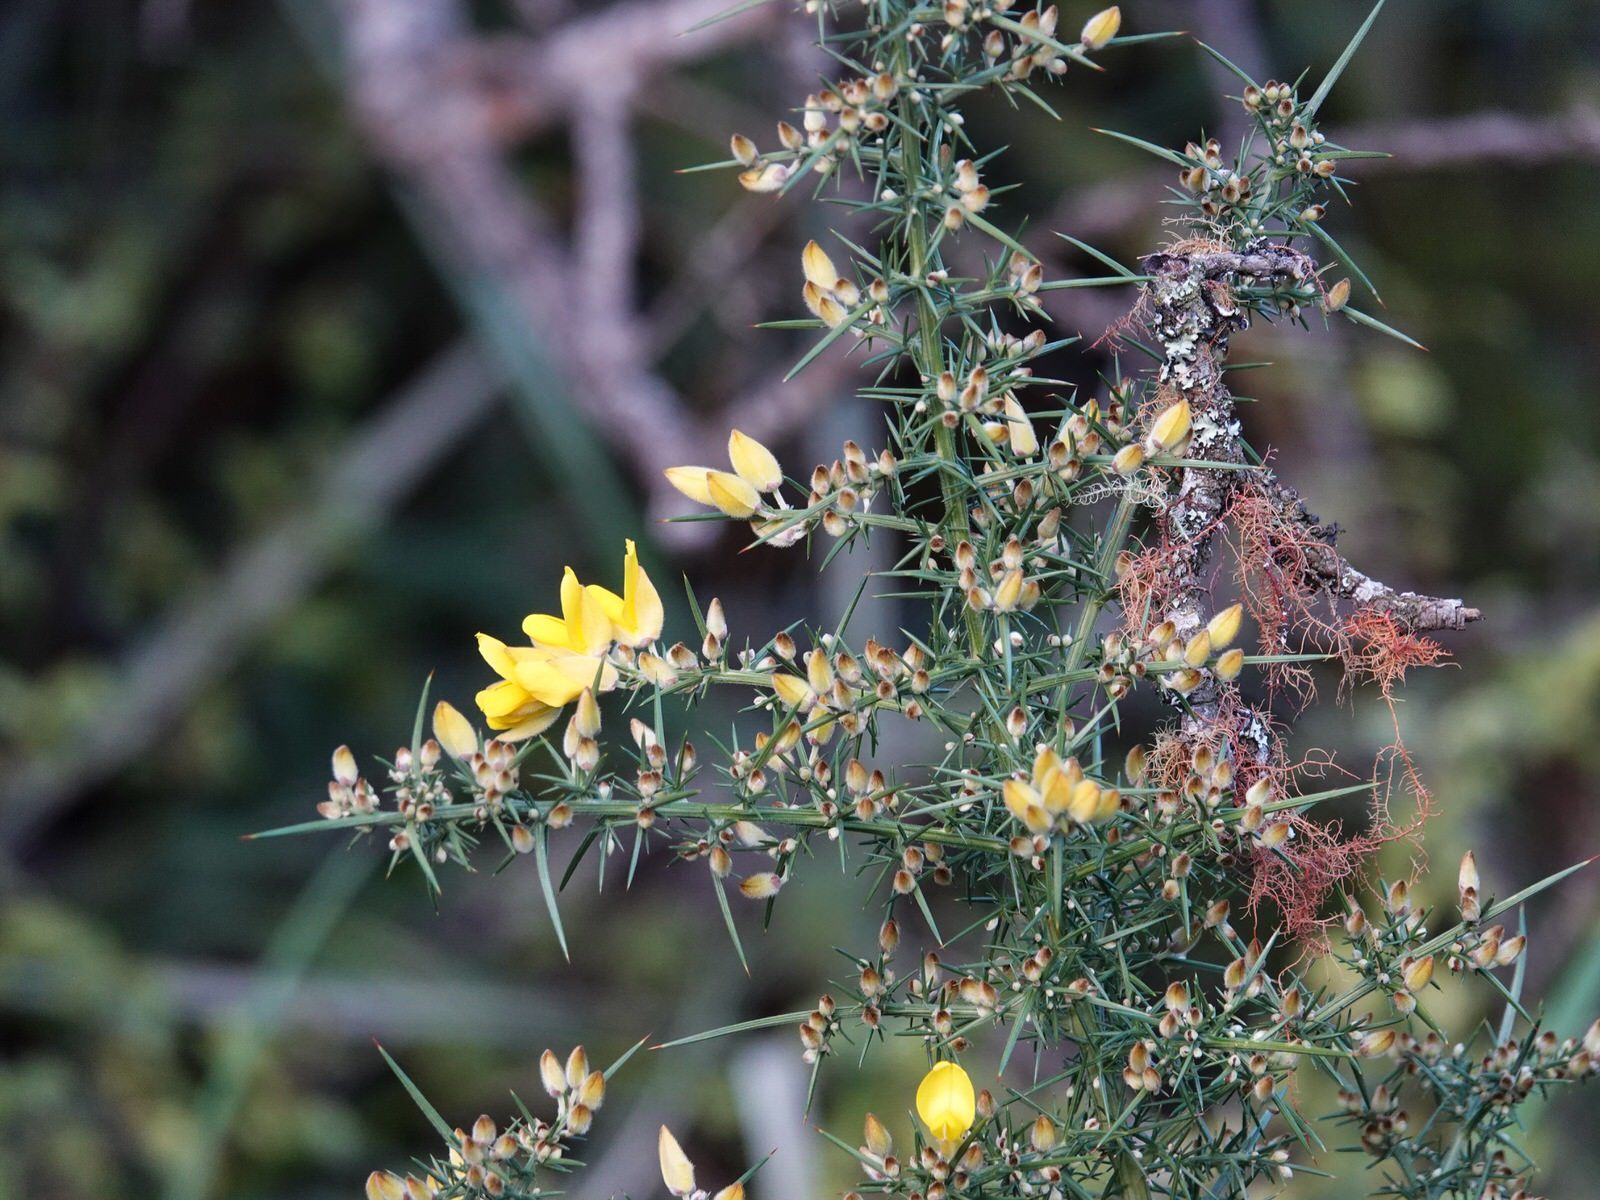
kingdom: Plantae
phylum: Tracheophyta
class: Magnoliopsida
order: Fabales
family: Fabaceae
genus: Ulex
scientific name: Ulex europaeus
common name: Common gorse
